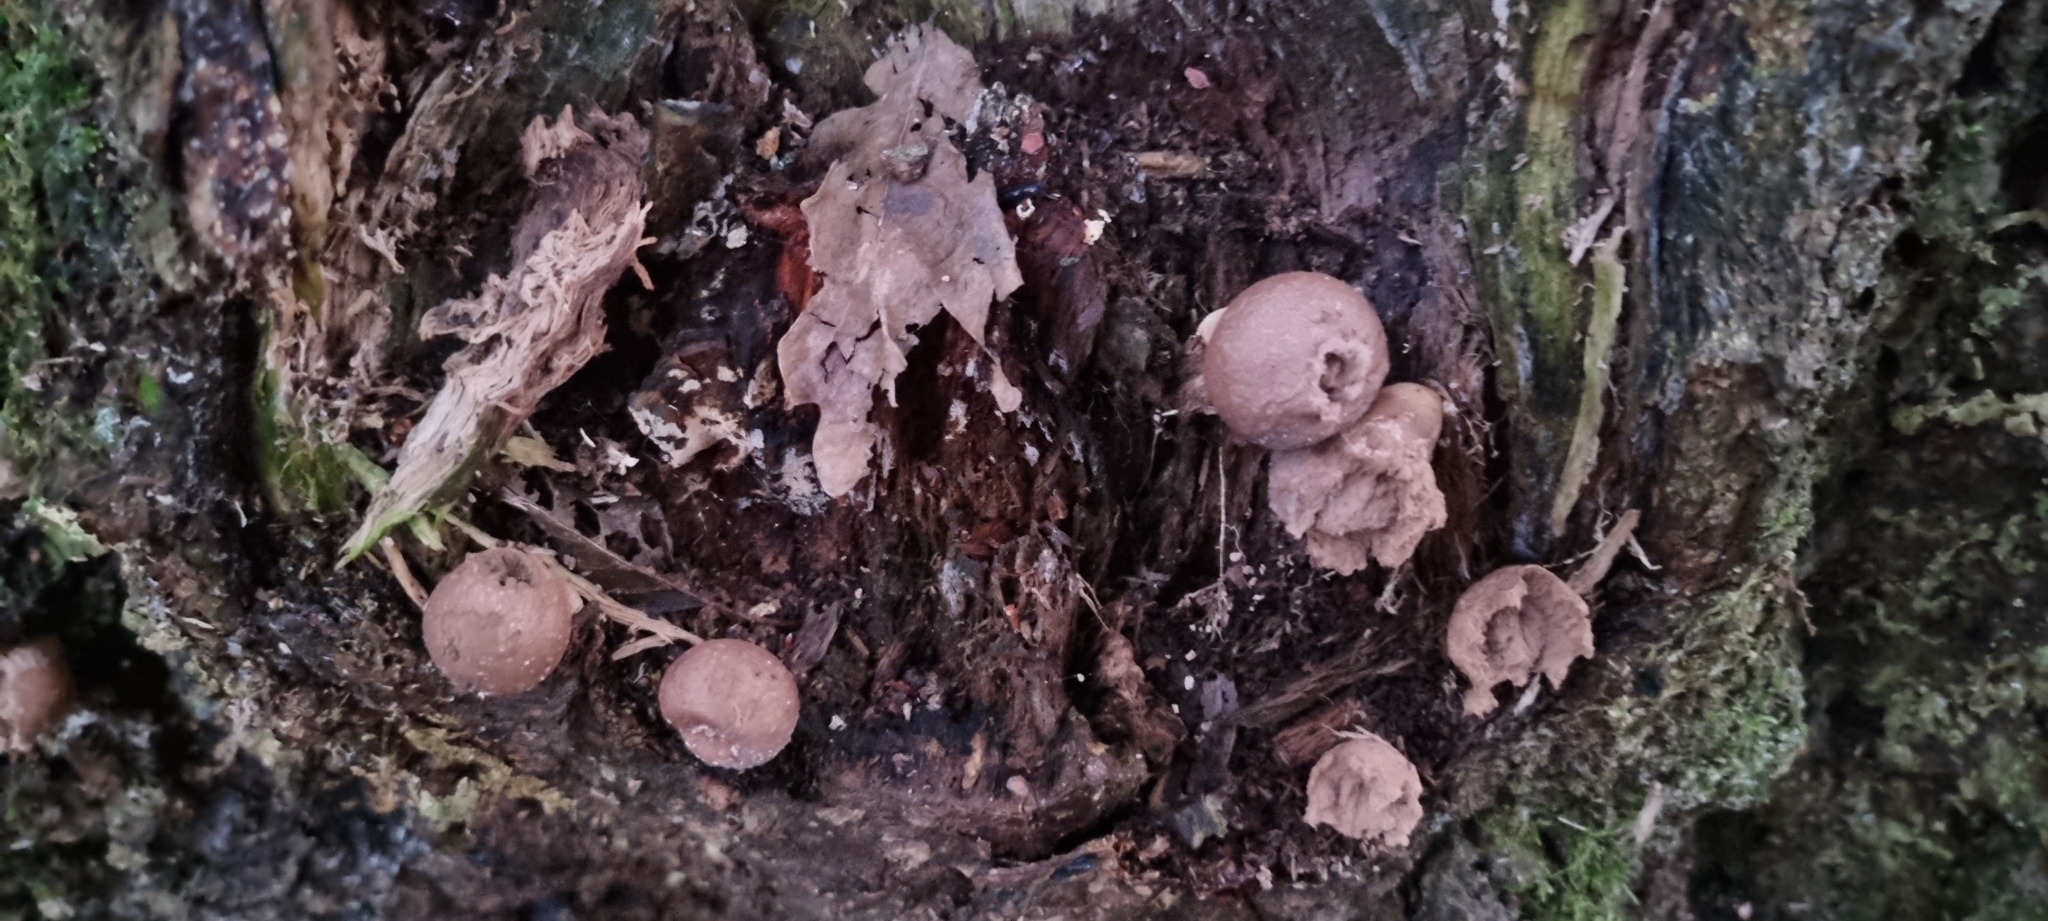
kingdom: Fungi
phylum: Basidiomycota
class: Agaricomycetes
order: Agaricales
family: Lycoperdaceae
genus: Apioperdon
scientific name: Apioperdon pyriforme
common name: Pear-shaped puffball
